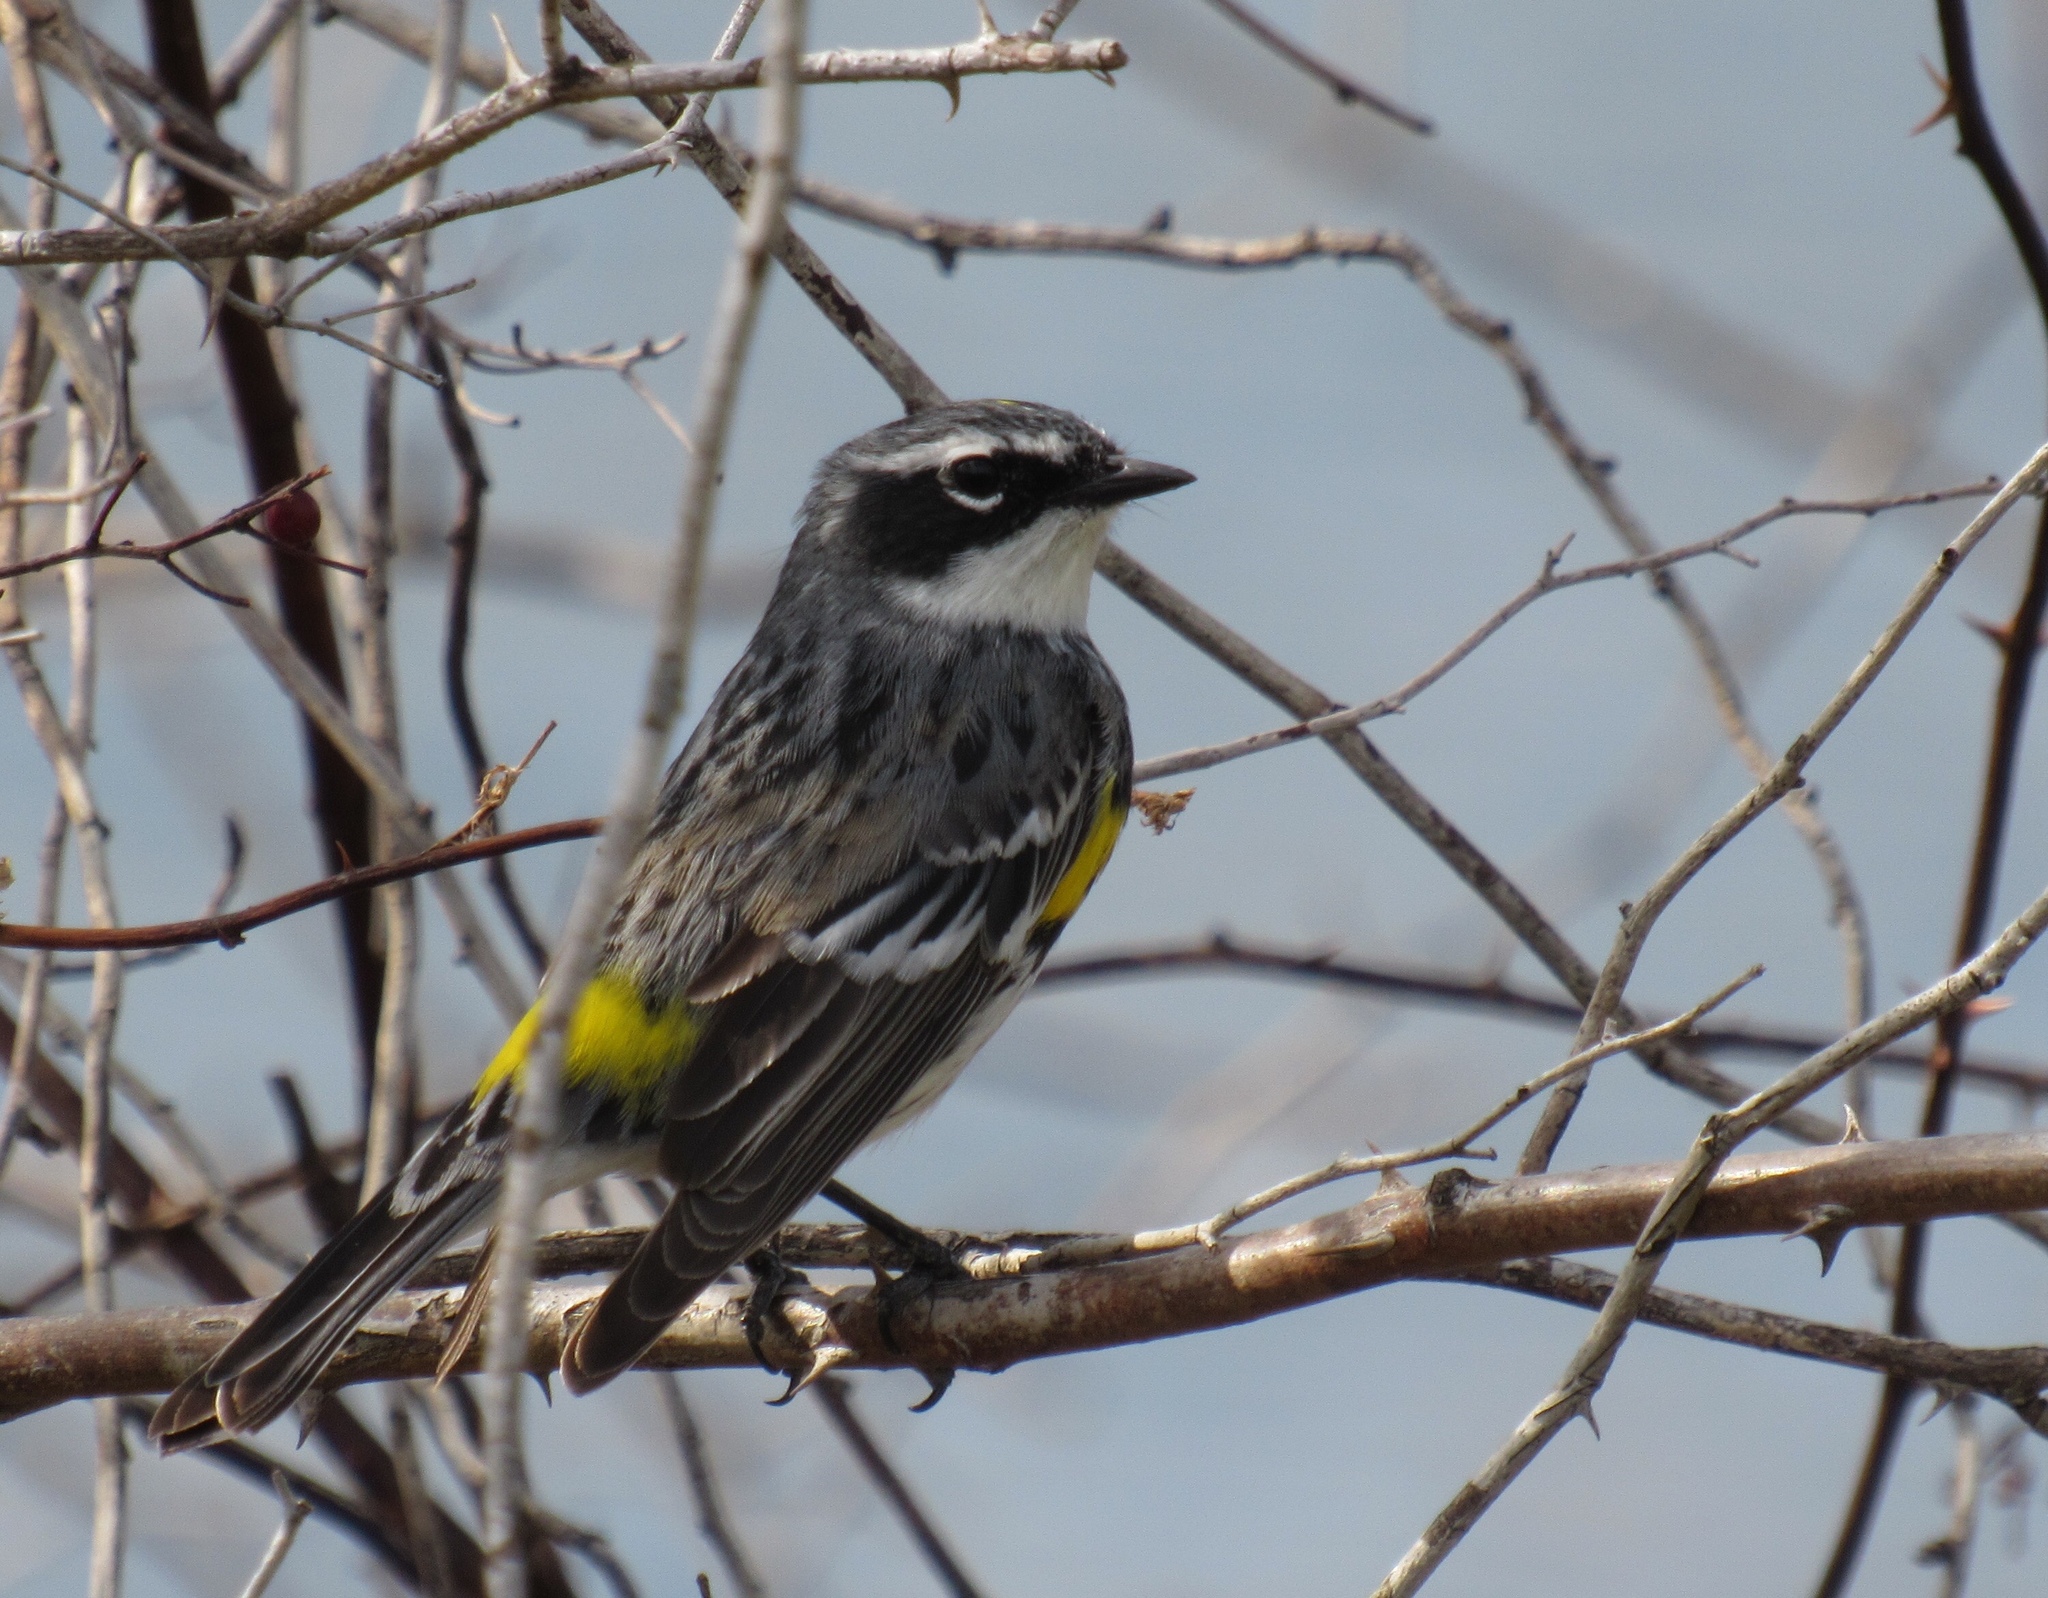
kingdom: Animalia
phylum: Chordata
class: Aves
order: Passeriformes
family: Parulidae
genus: Setophaga
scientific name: Setophaga coronata
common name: Myrtle warbler
